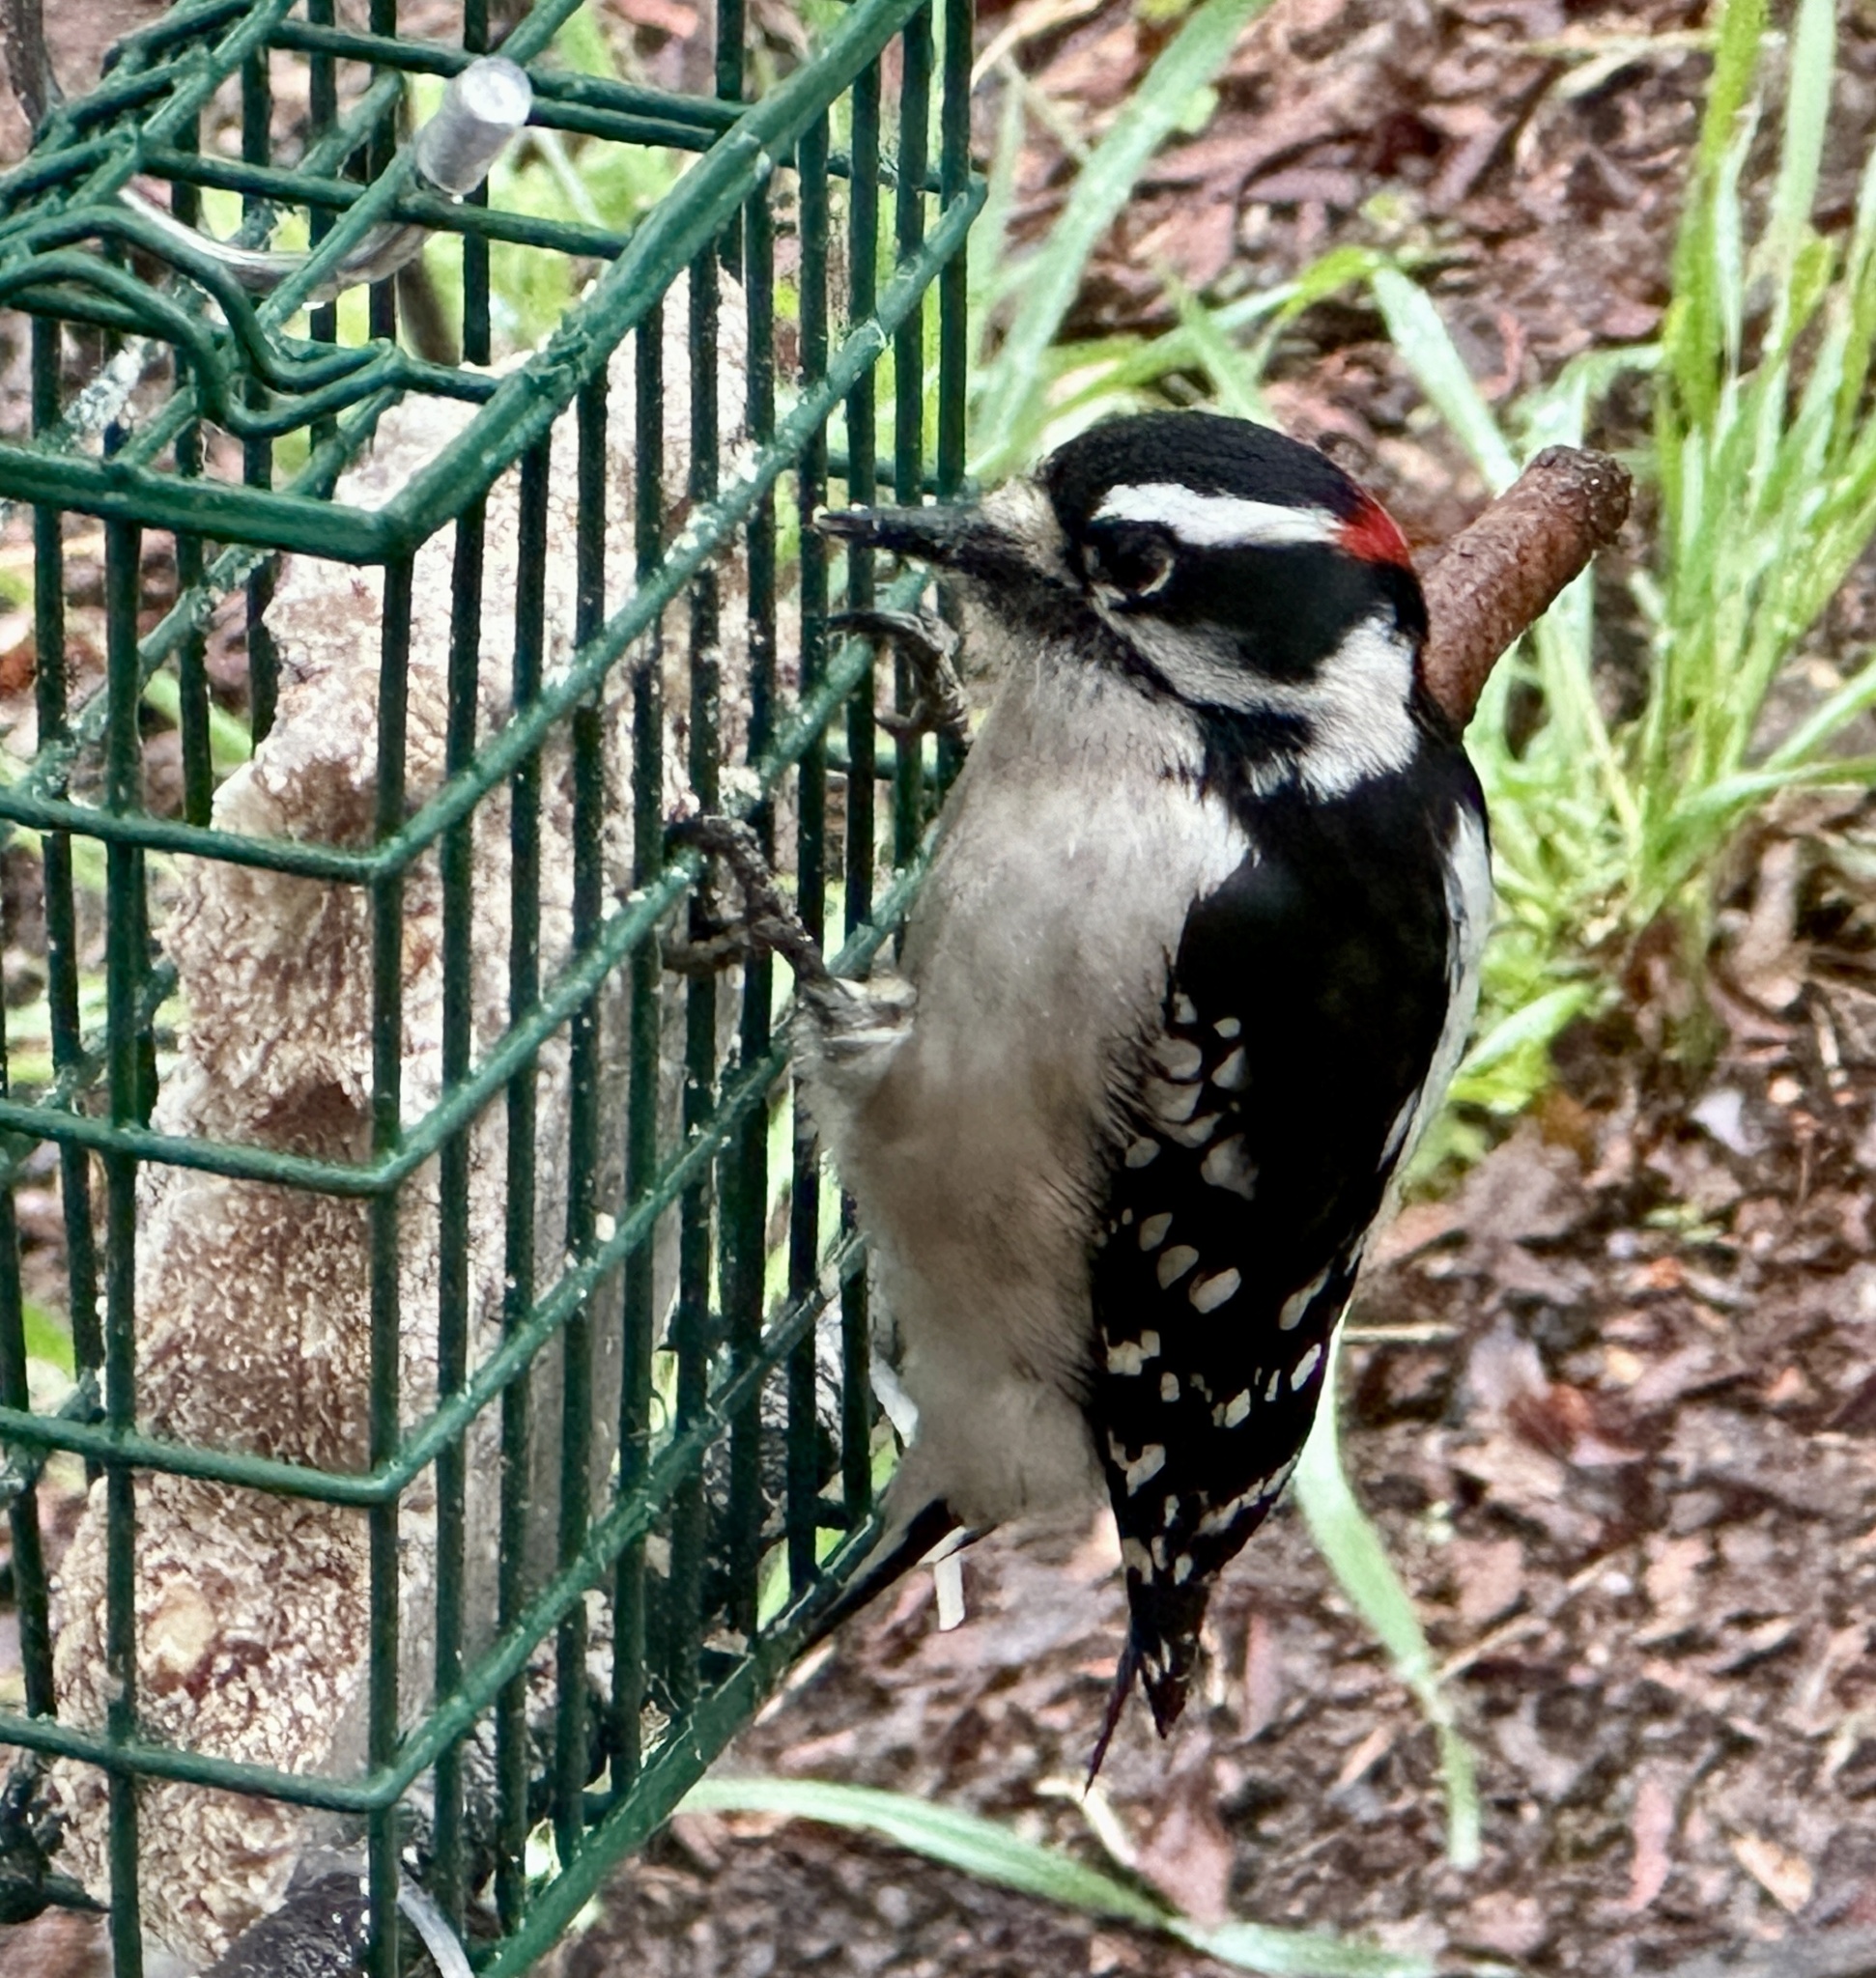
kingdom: Animalia
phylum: Chordata
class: Aves
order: Piciformes
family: Picidae
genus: Dryobates
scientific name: Dryobates pubescens
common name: Downy woodpecker
